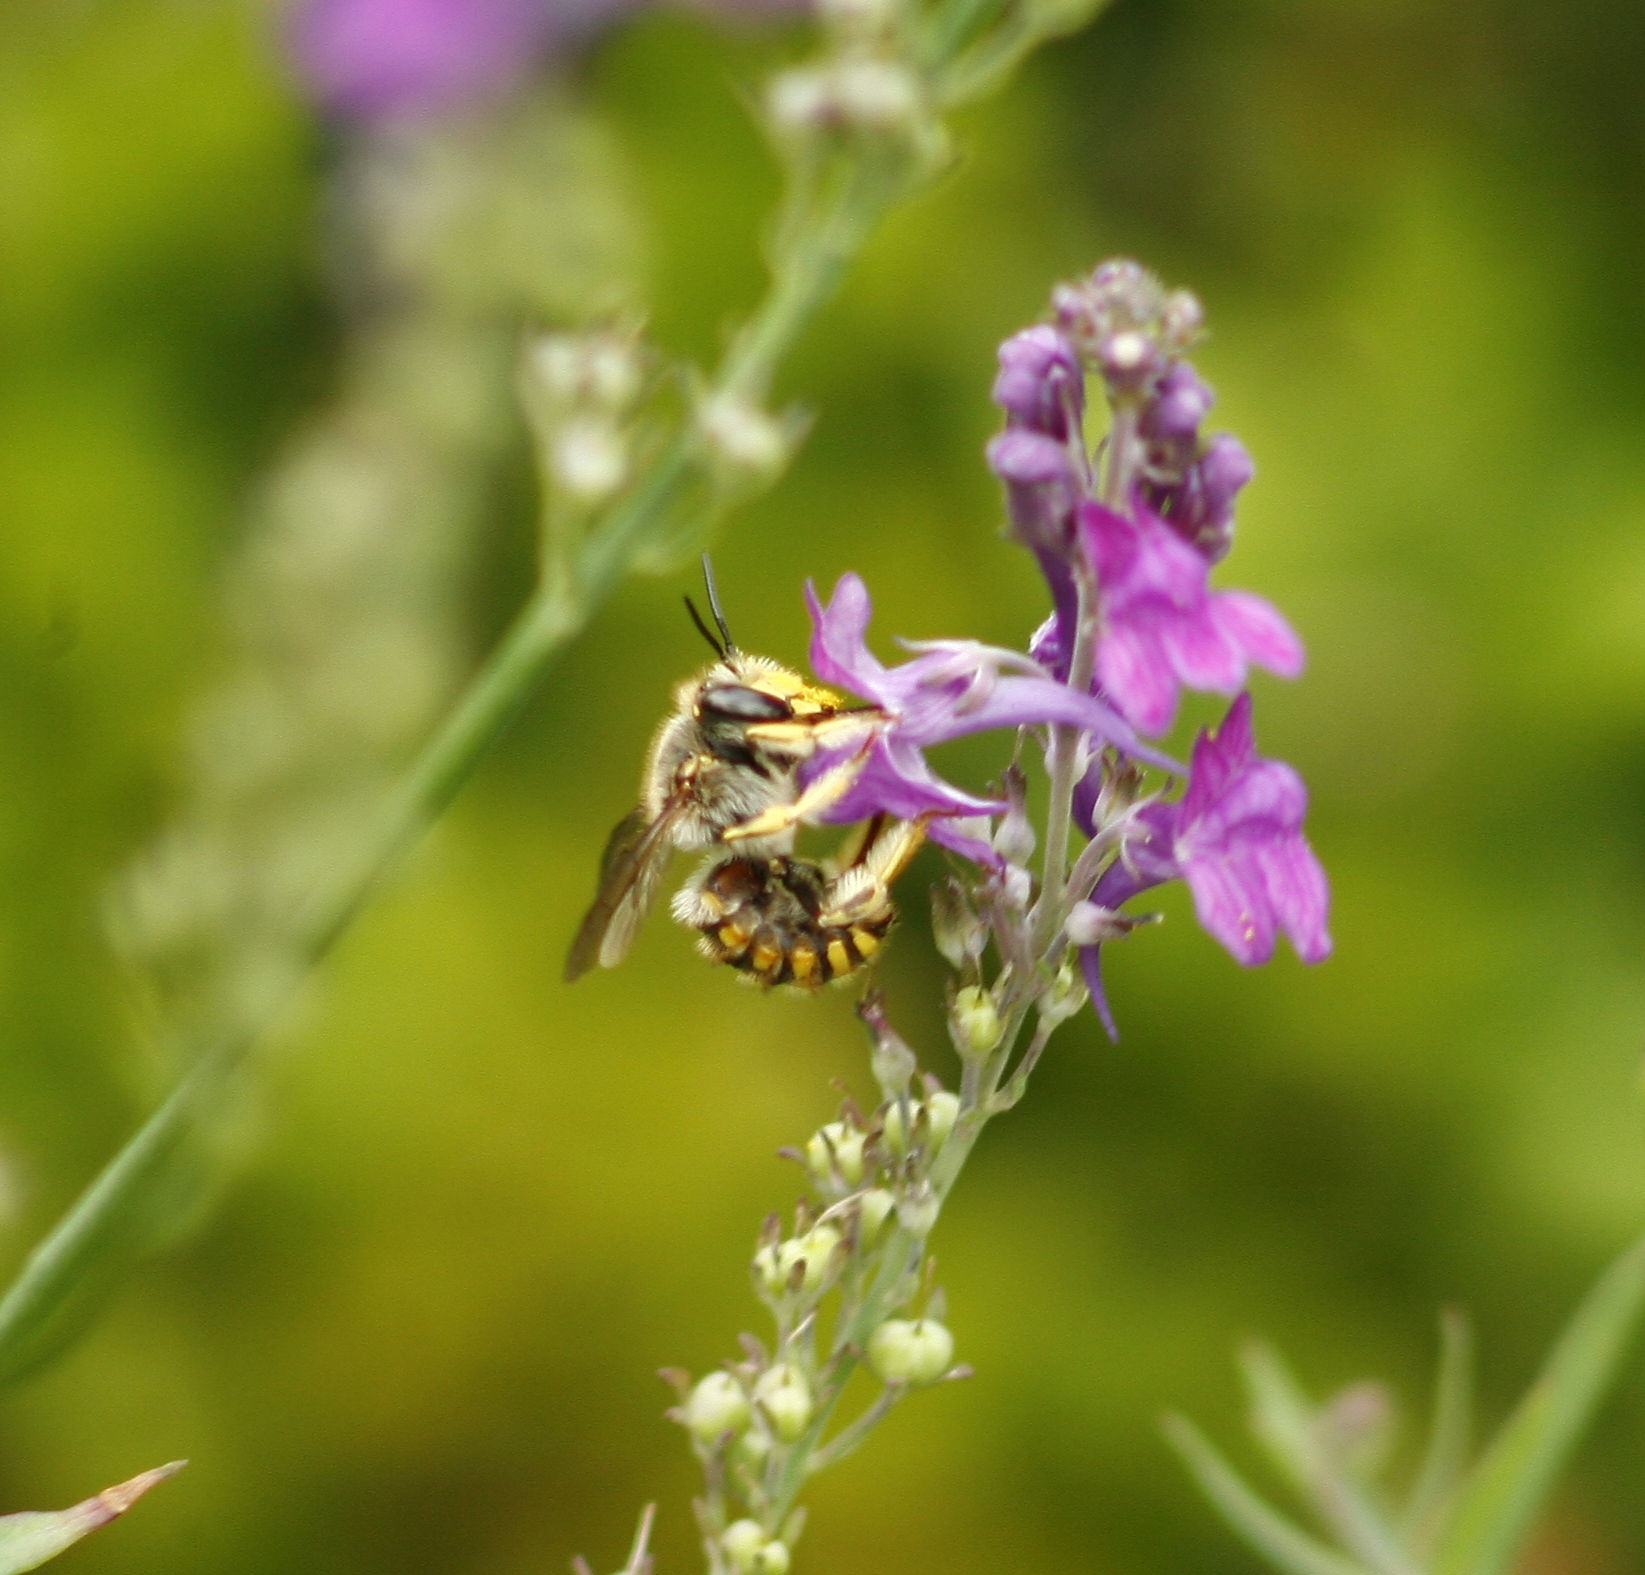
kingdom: Animalia
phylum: Arthropoda
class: Insecta
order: Hymenoptera
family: Megachilidae
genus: Anthidium
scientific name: Anthidium manicatum
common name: Wool carder bee
